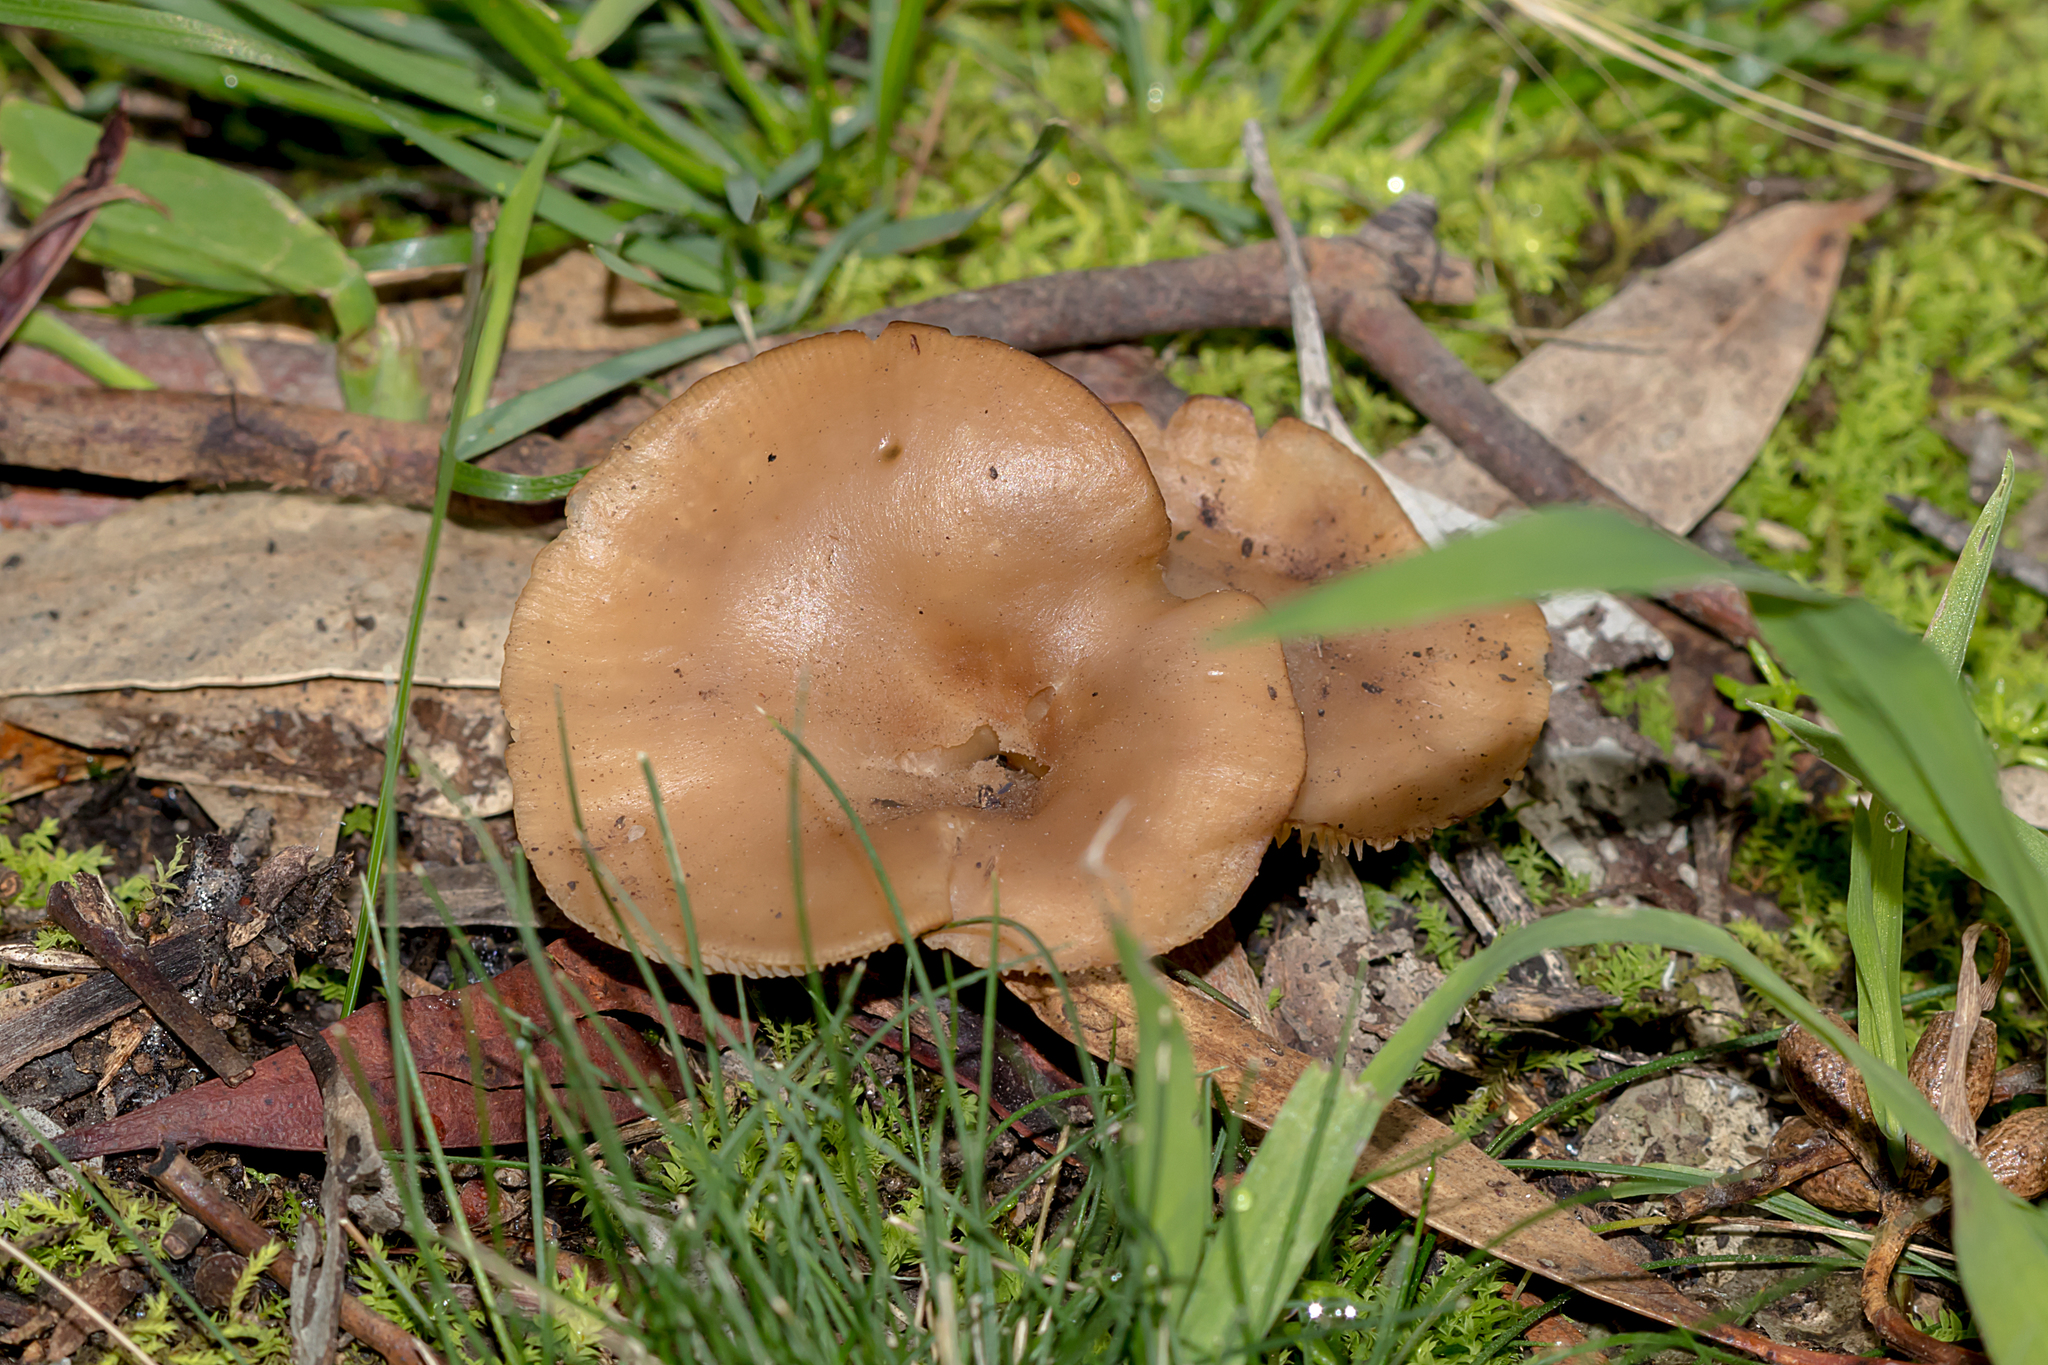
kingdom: Fungi
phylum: Basidiomycota
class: Agaricomycetes
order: Agaricales
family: Tricholomataceae
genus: Singerocybe
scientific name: Singerocybe clitocyboides
